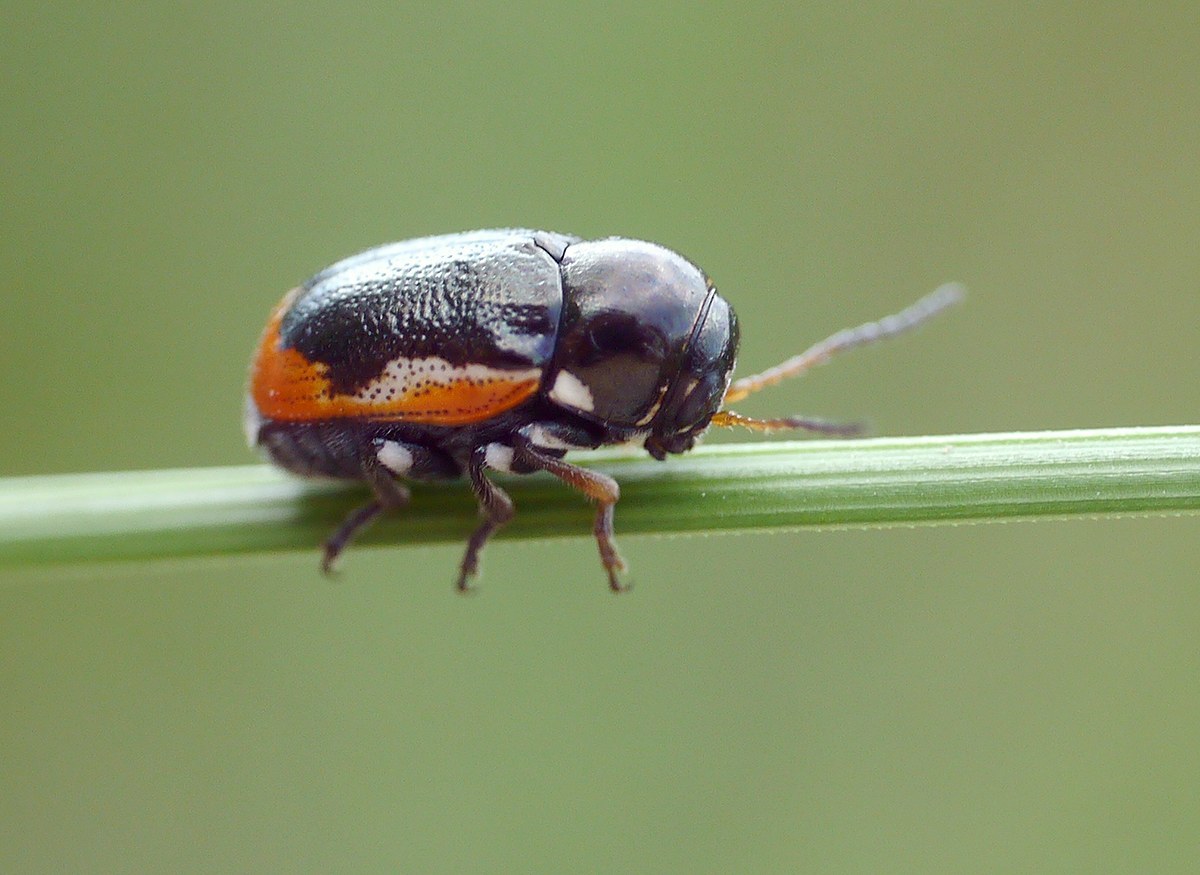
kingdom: Animalia
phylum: Arthropoda
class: Insecta
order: Coleoptera
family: Chrysomelidae
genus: Macromonycha
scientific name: Macromonycha apicalis
